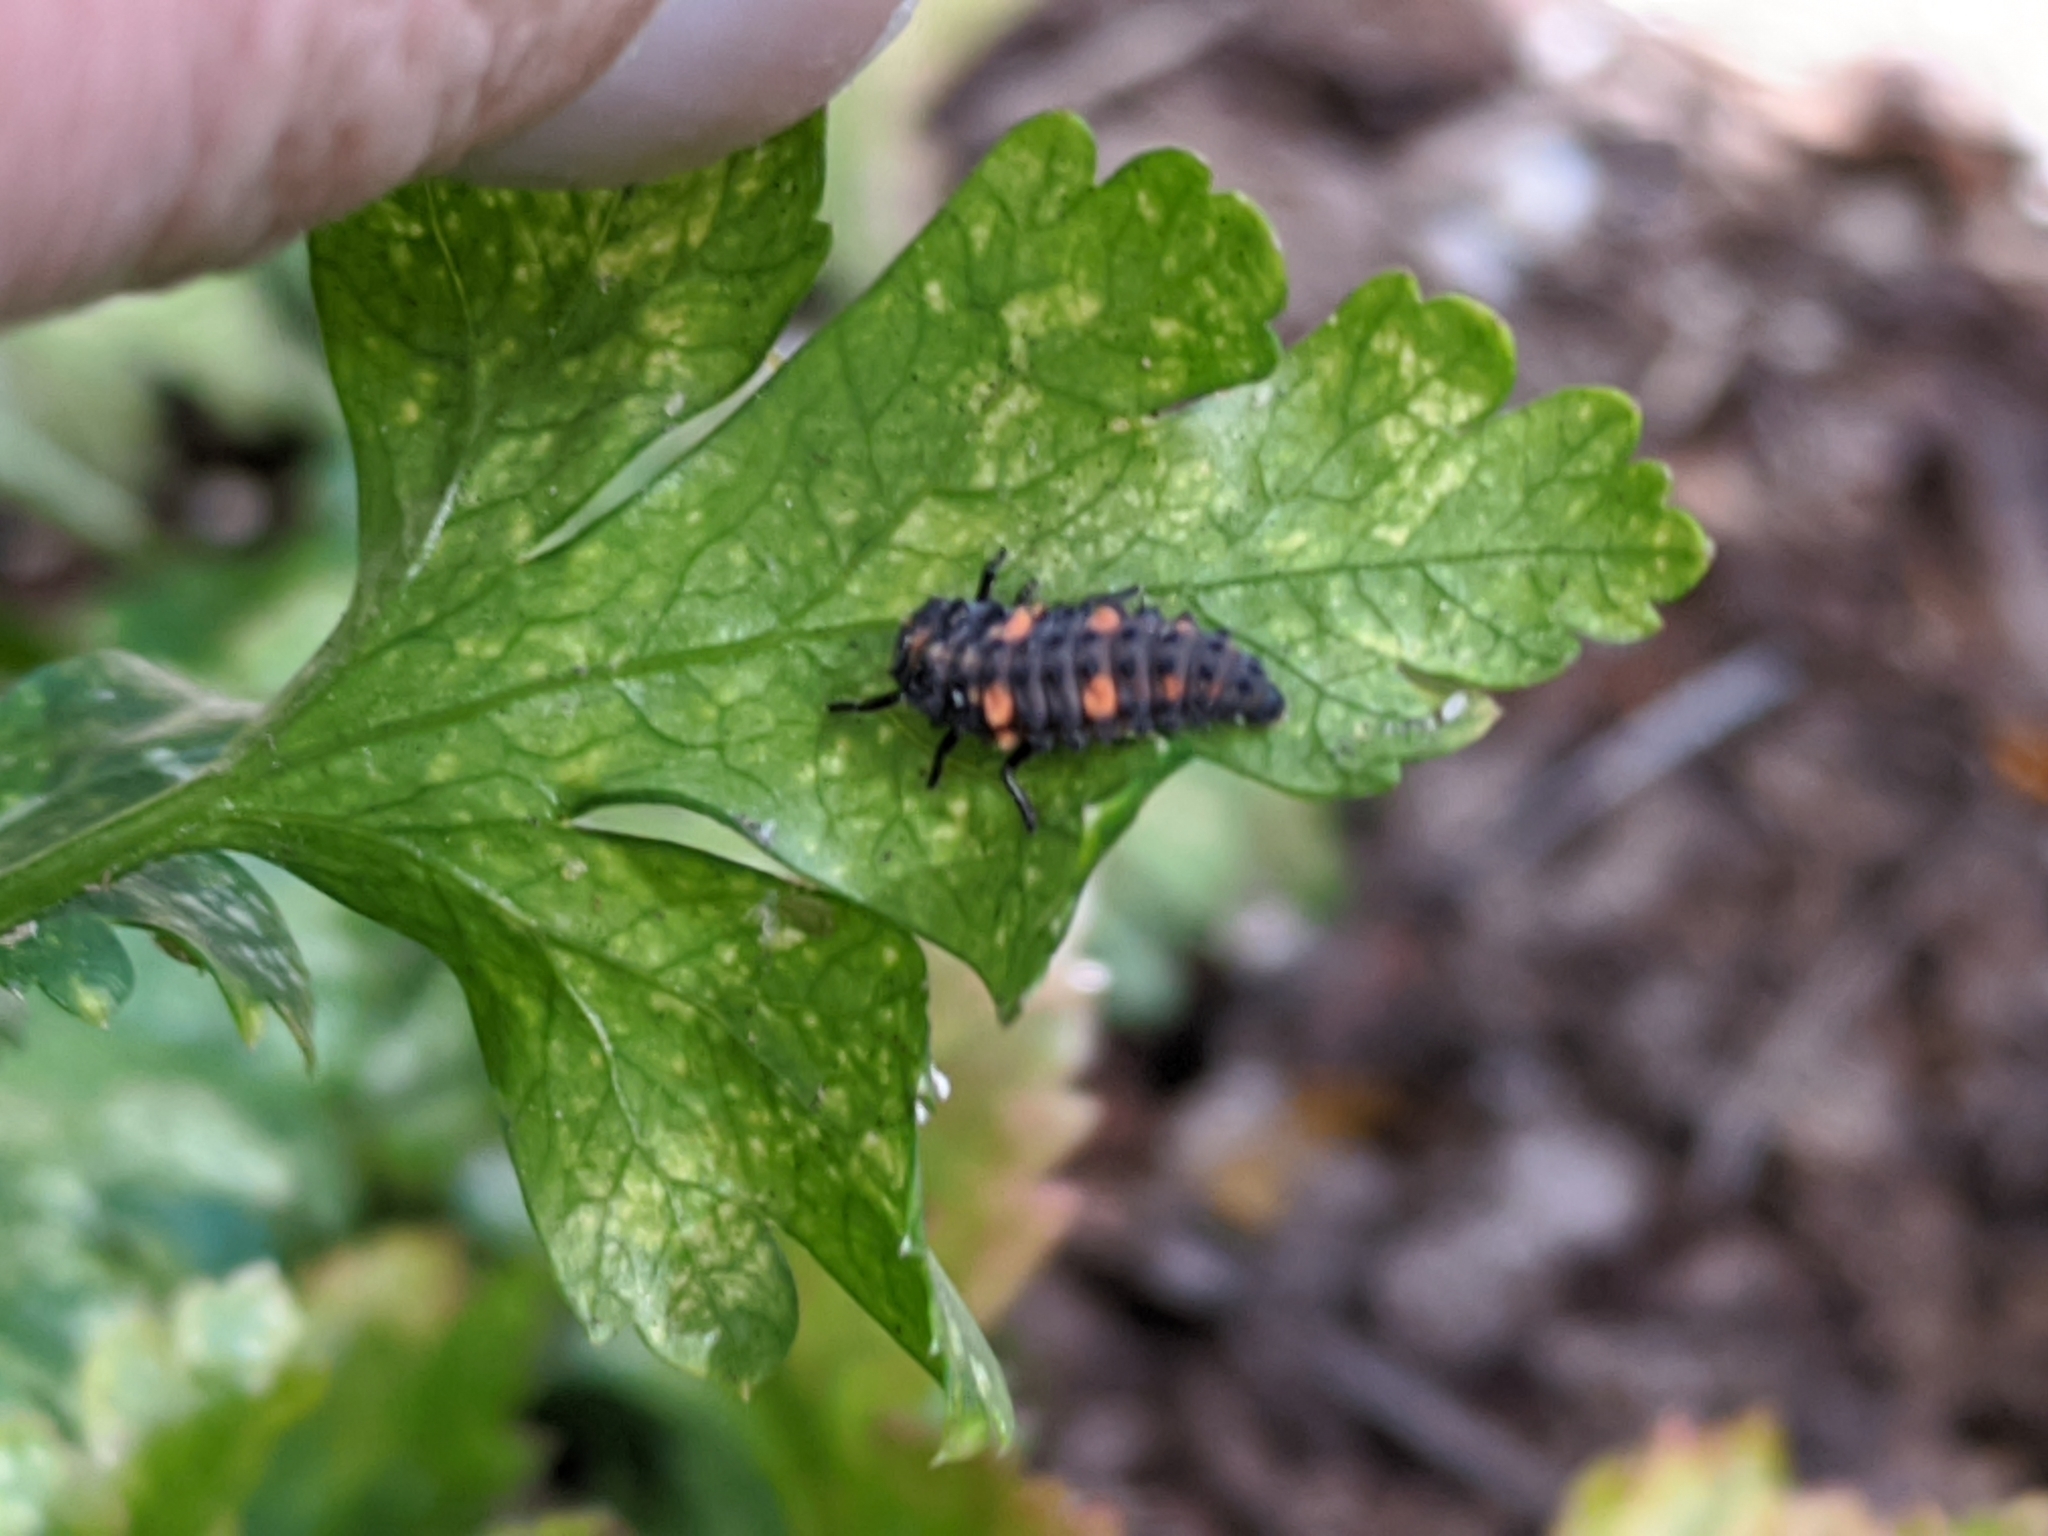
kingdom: Animalia
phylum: Arthropoda
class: Insecta
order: Coleoptera
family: Coccinellidae
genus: Hippodamia
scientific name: Hippodamia convergens
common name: Convergent lady beetle
